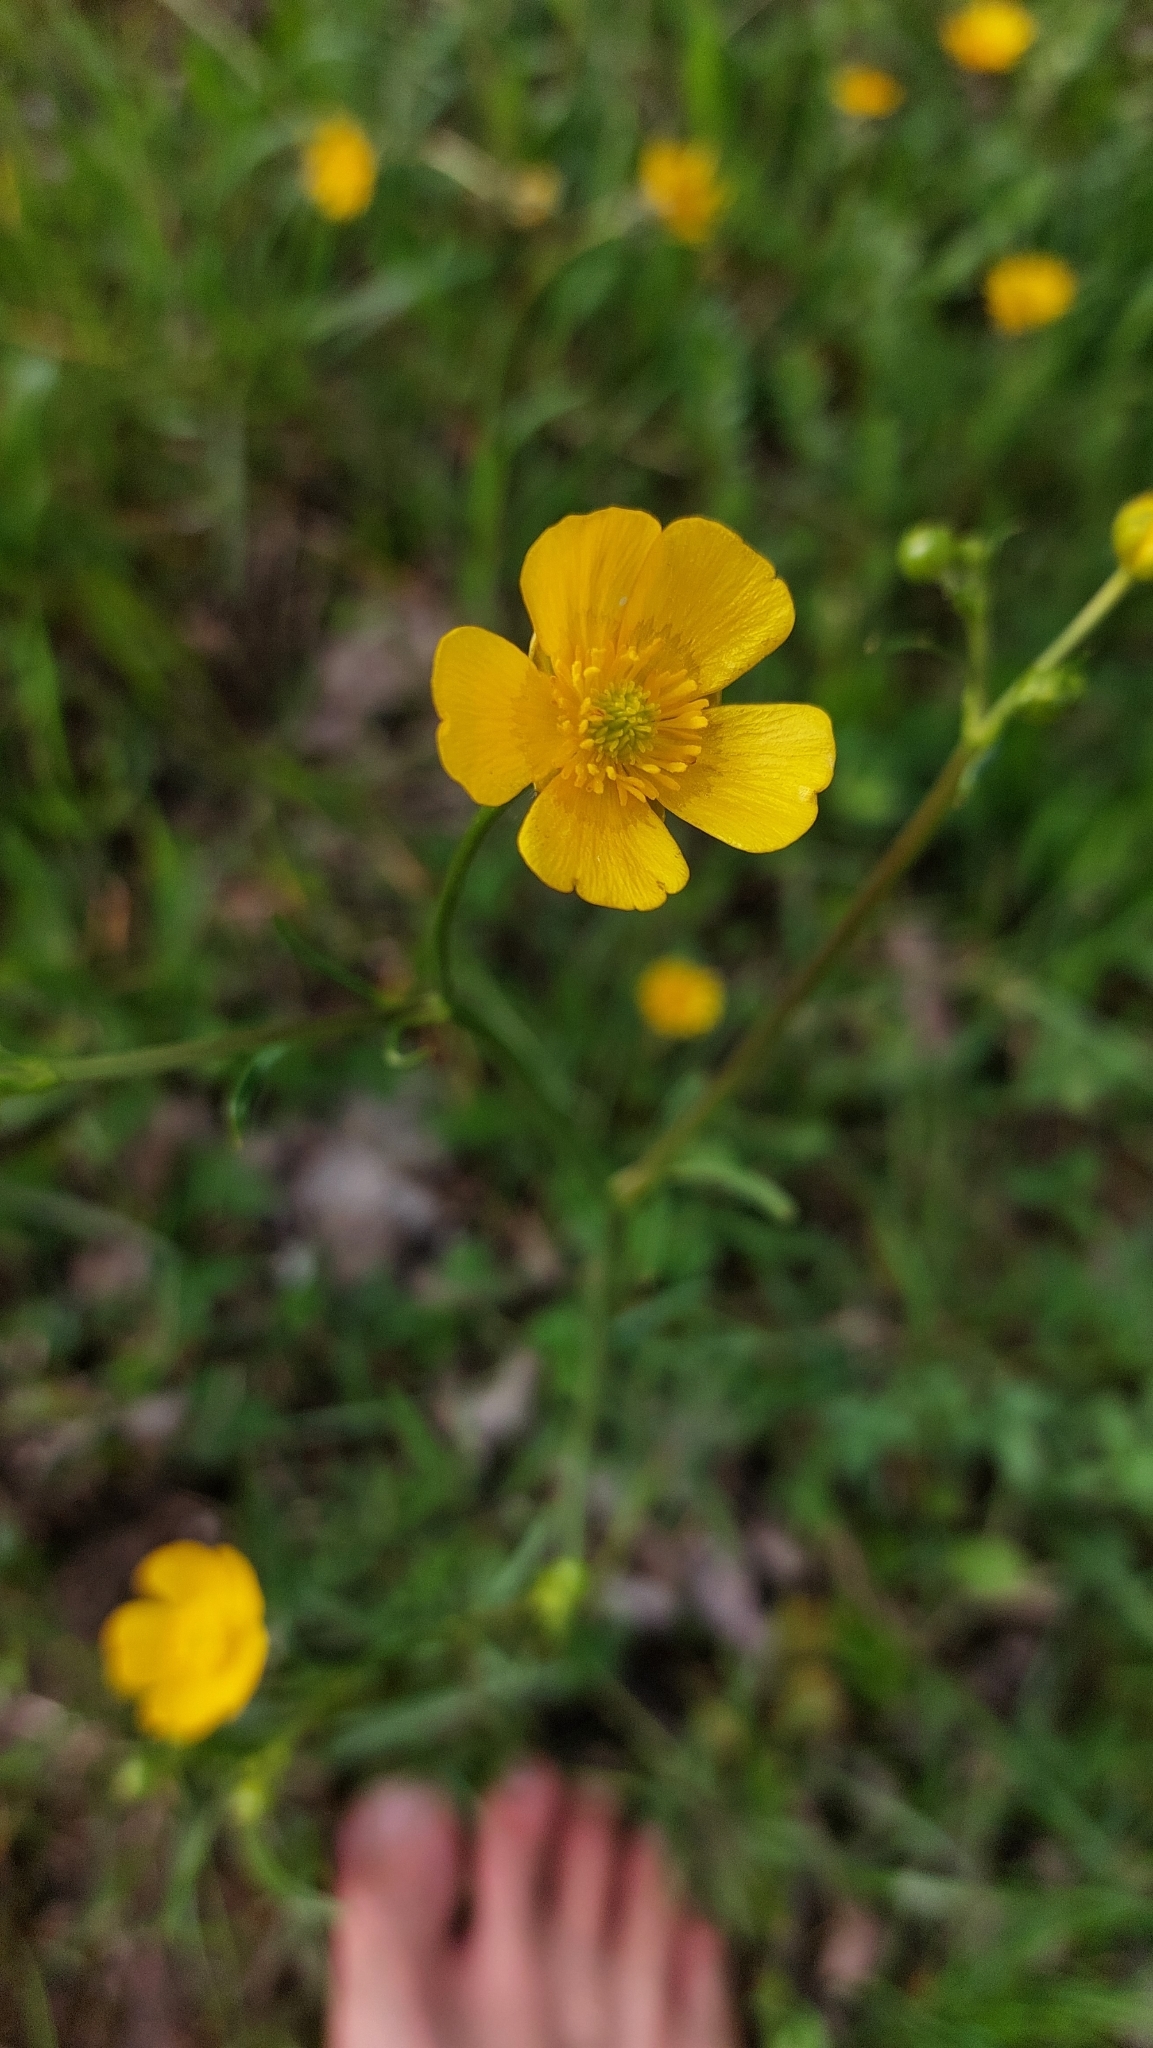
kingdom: Plantae
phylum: Tracheophyta
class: Magnoliopsida
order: Ranunculales
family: Ranunculaceae
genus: Ranunculus
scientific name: Ranunculus acris
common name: Meadow buttercup
